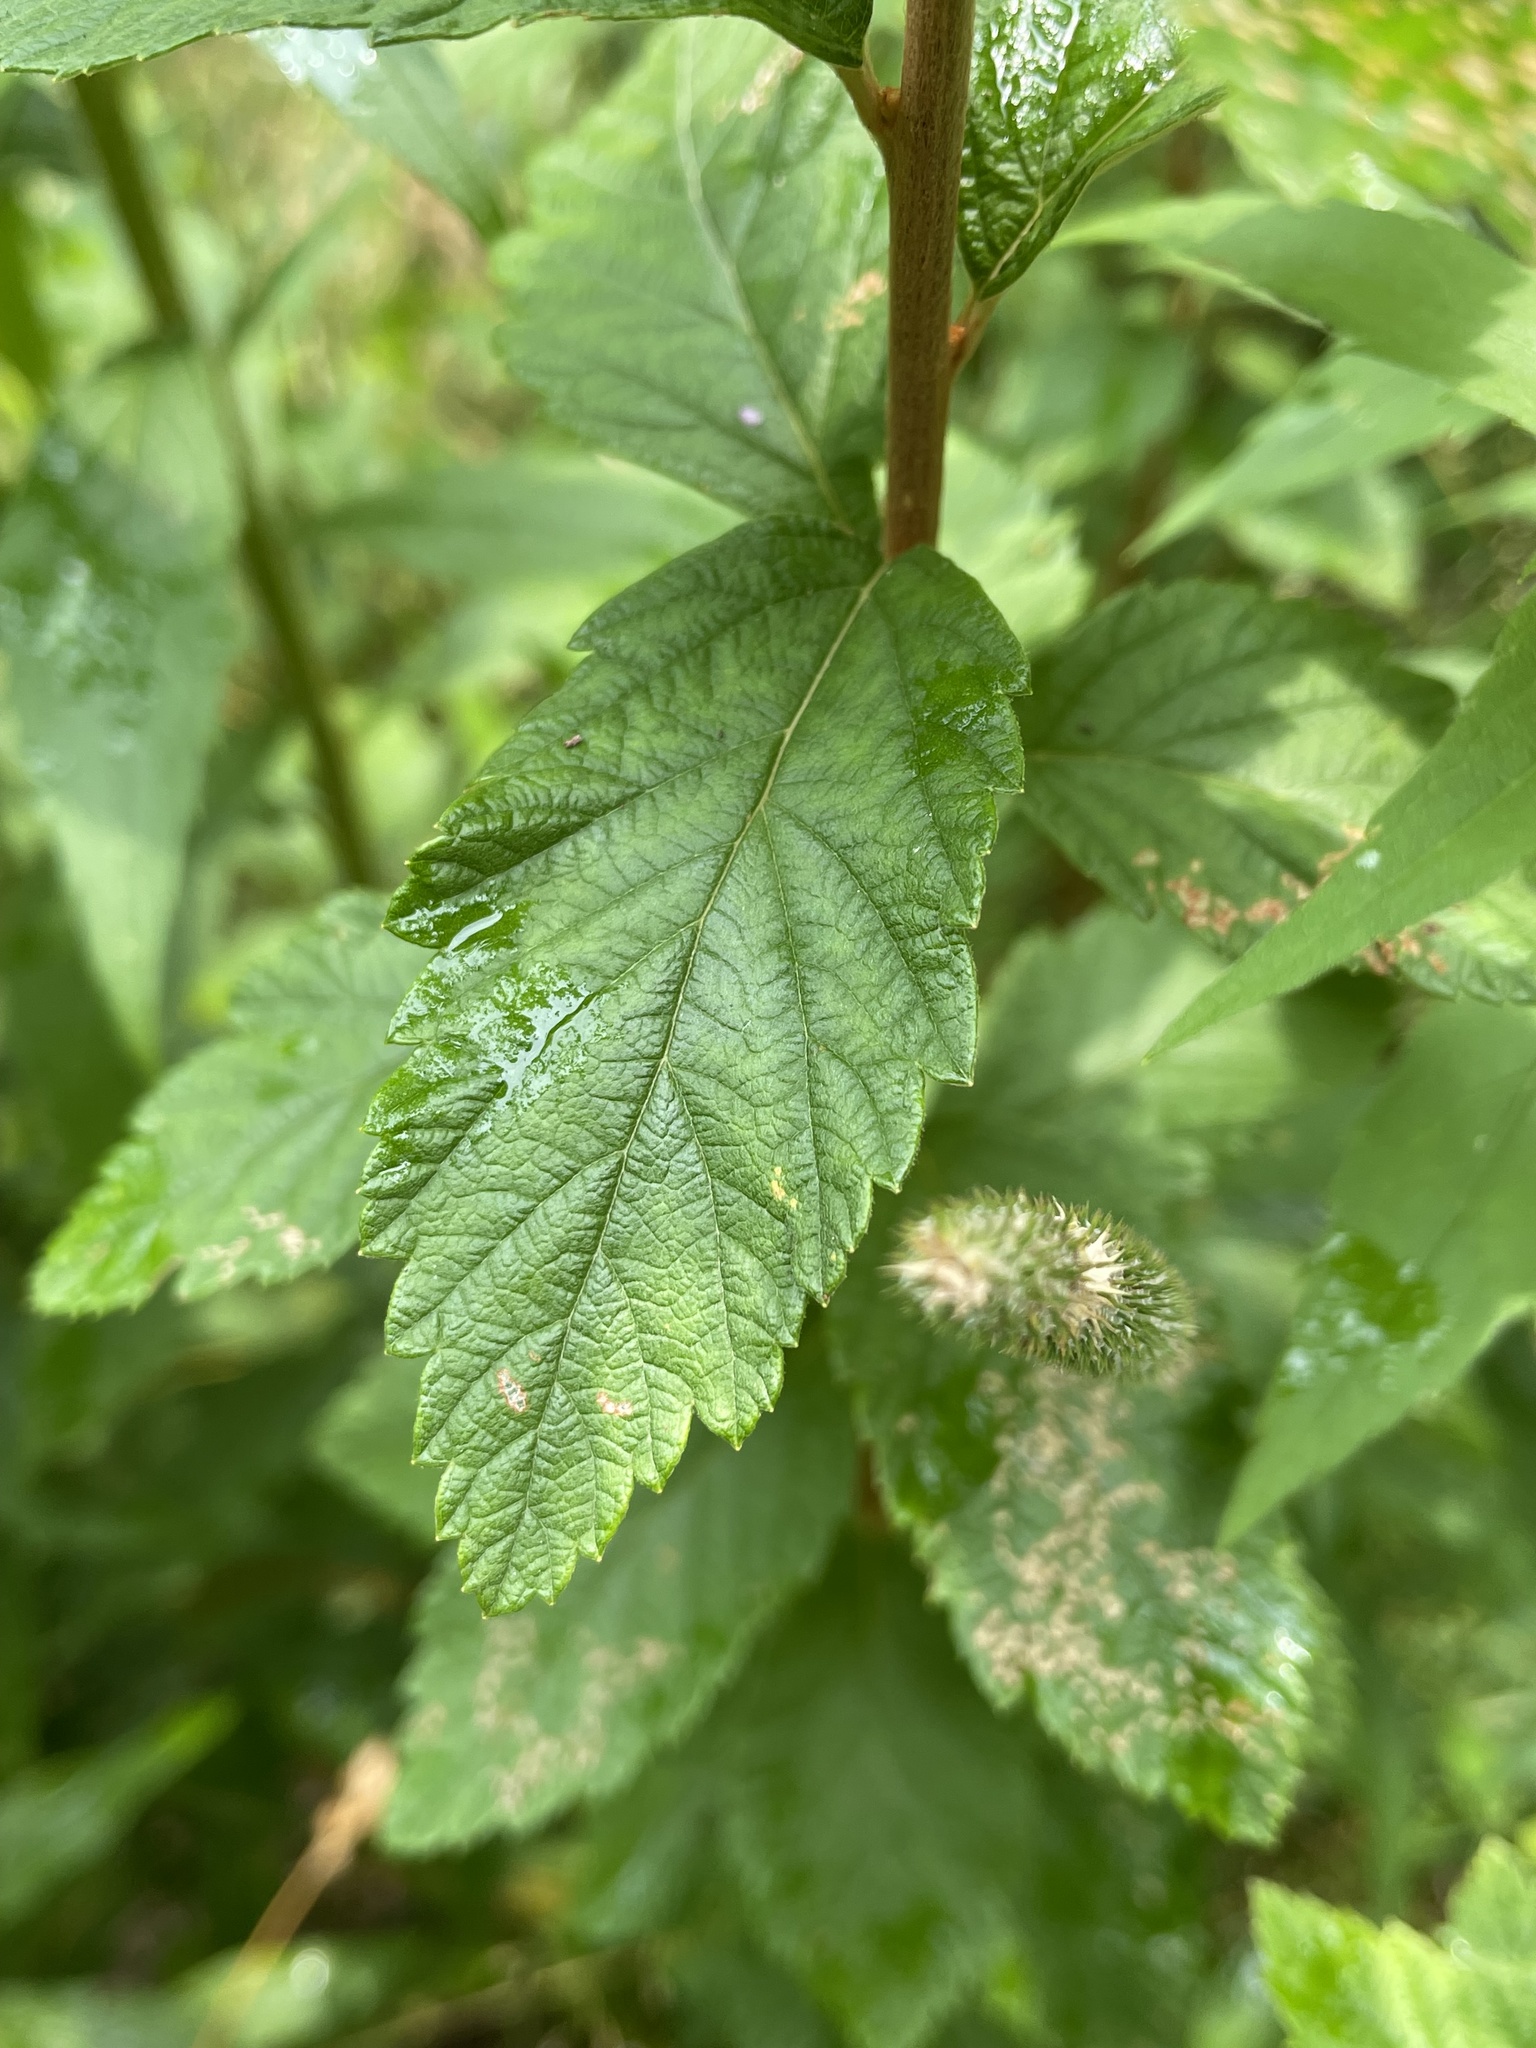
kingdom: Plantae
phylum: Tracheophyta
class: Magnoliopsida
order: Rosales
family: Rosaceae
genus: Spiraea
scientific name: Spiraea tomentosa
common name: Hardhack
